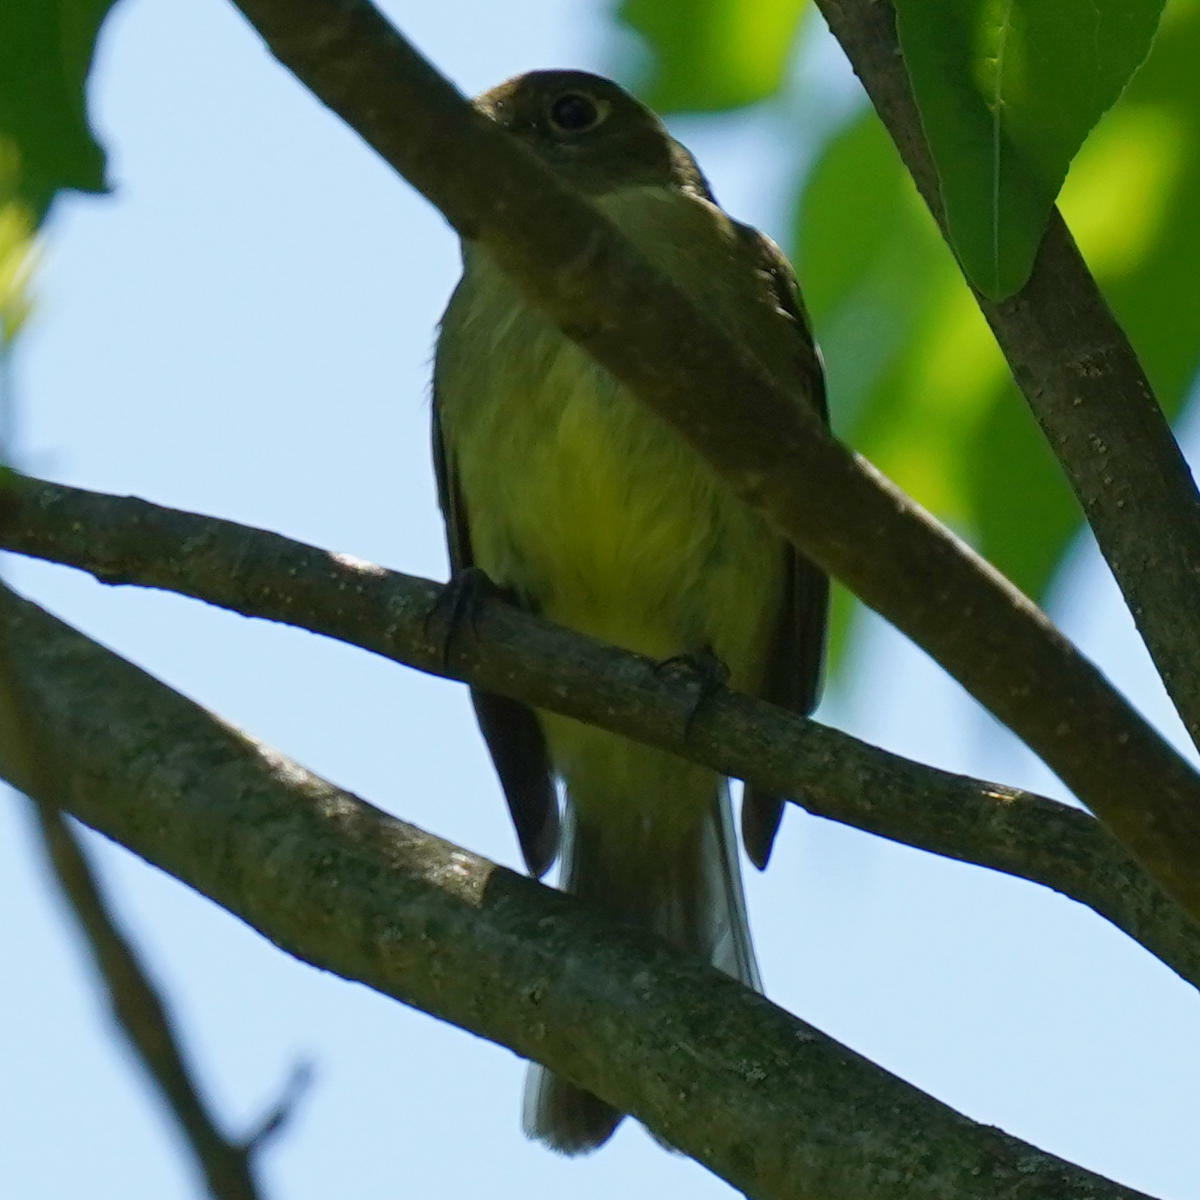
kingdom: Animalia
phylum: Chordata
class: Aves
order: Passeriformes
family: Tyrannidae
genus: Empidonax
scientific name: Empidonax flaviventris
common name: Yellow-bellied flycatcher
